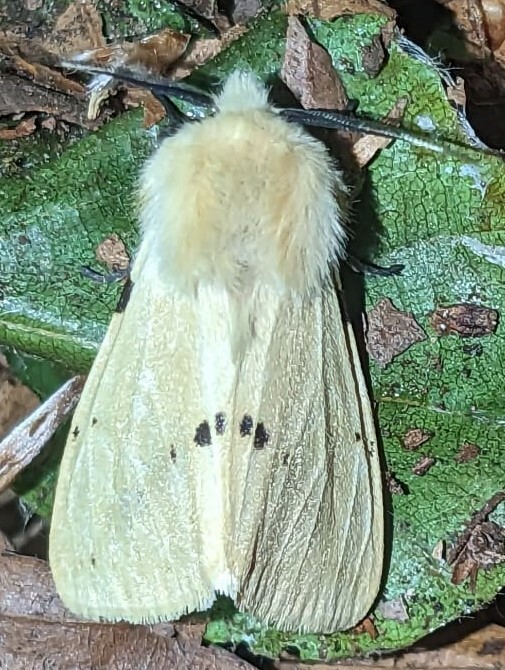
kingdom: Animalia
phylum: Arthropoda
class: Insecta
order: Lepidoptera
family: Erebidae
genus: Spilarctia
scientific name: Spilarctia lutea
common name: Buff ermine
